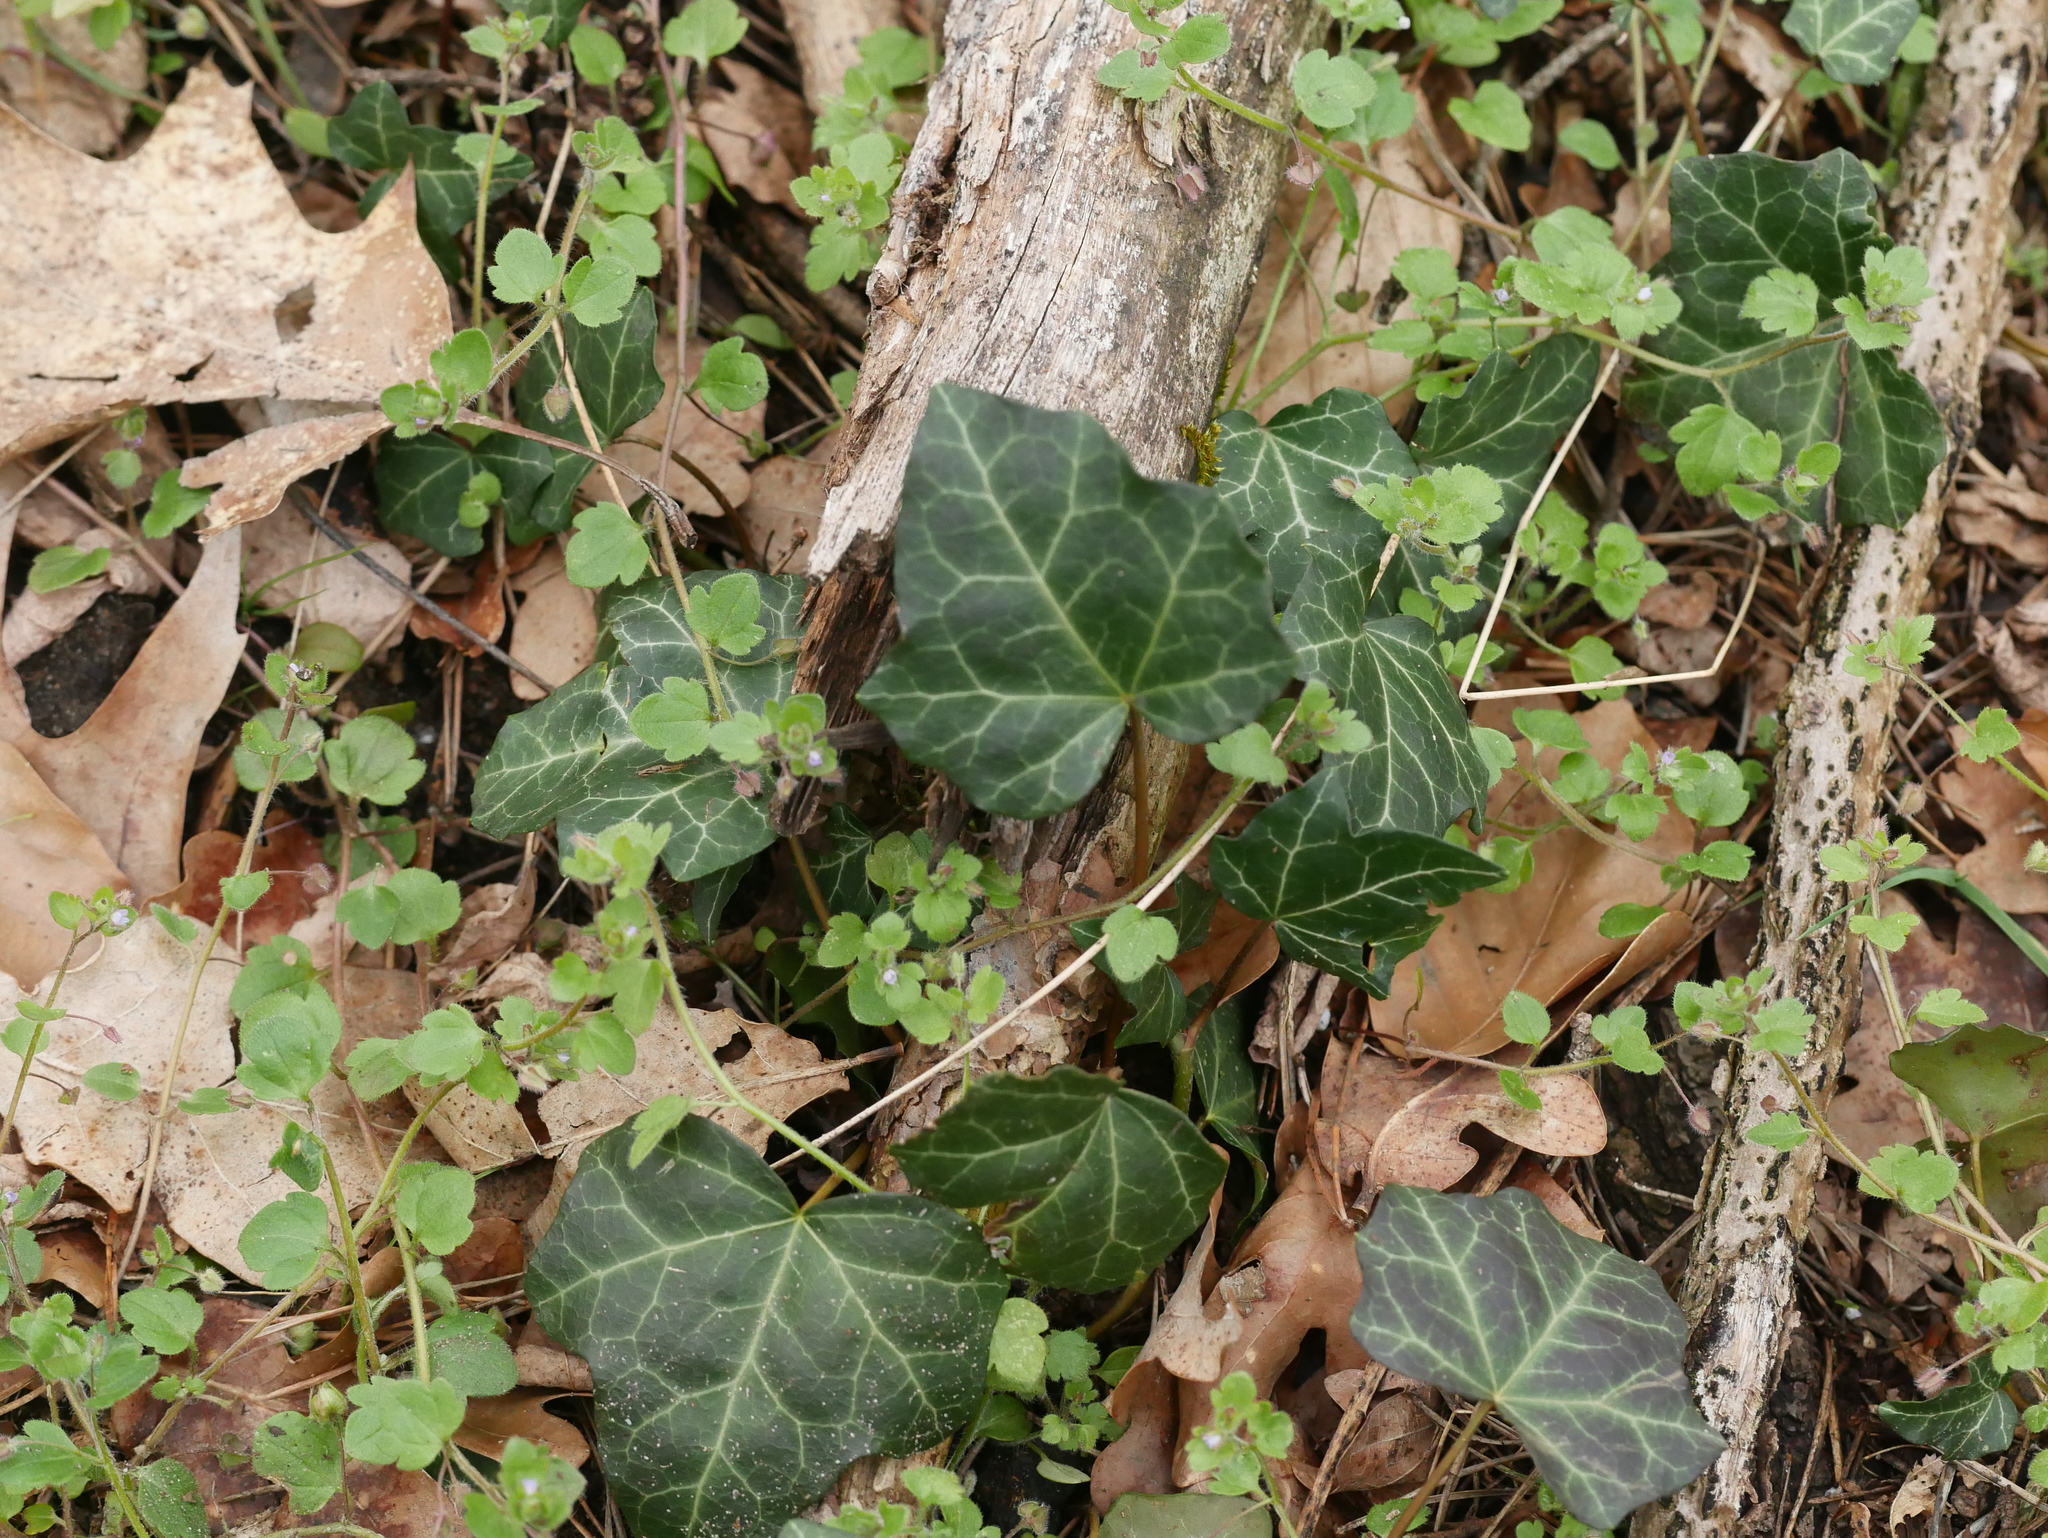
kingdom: Plantae
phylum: Tracheophyta
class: Magnoliopsida
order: Apiales
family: Araliaceae
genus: Hedera
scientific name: Hedera helix
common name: Ivy
